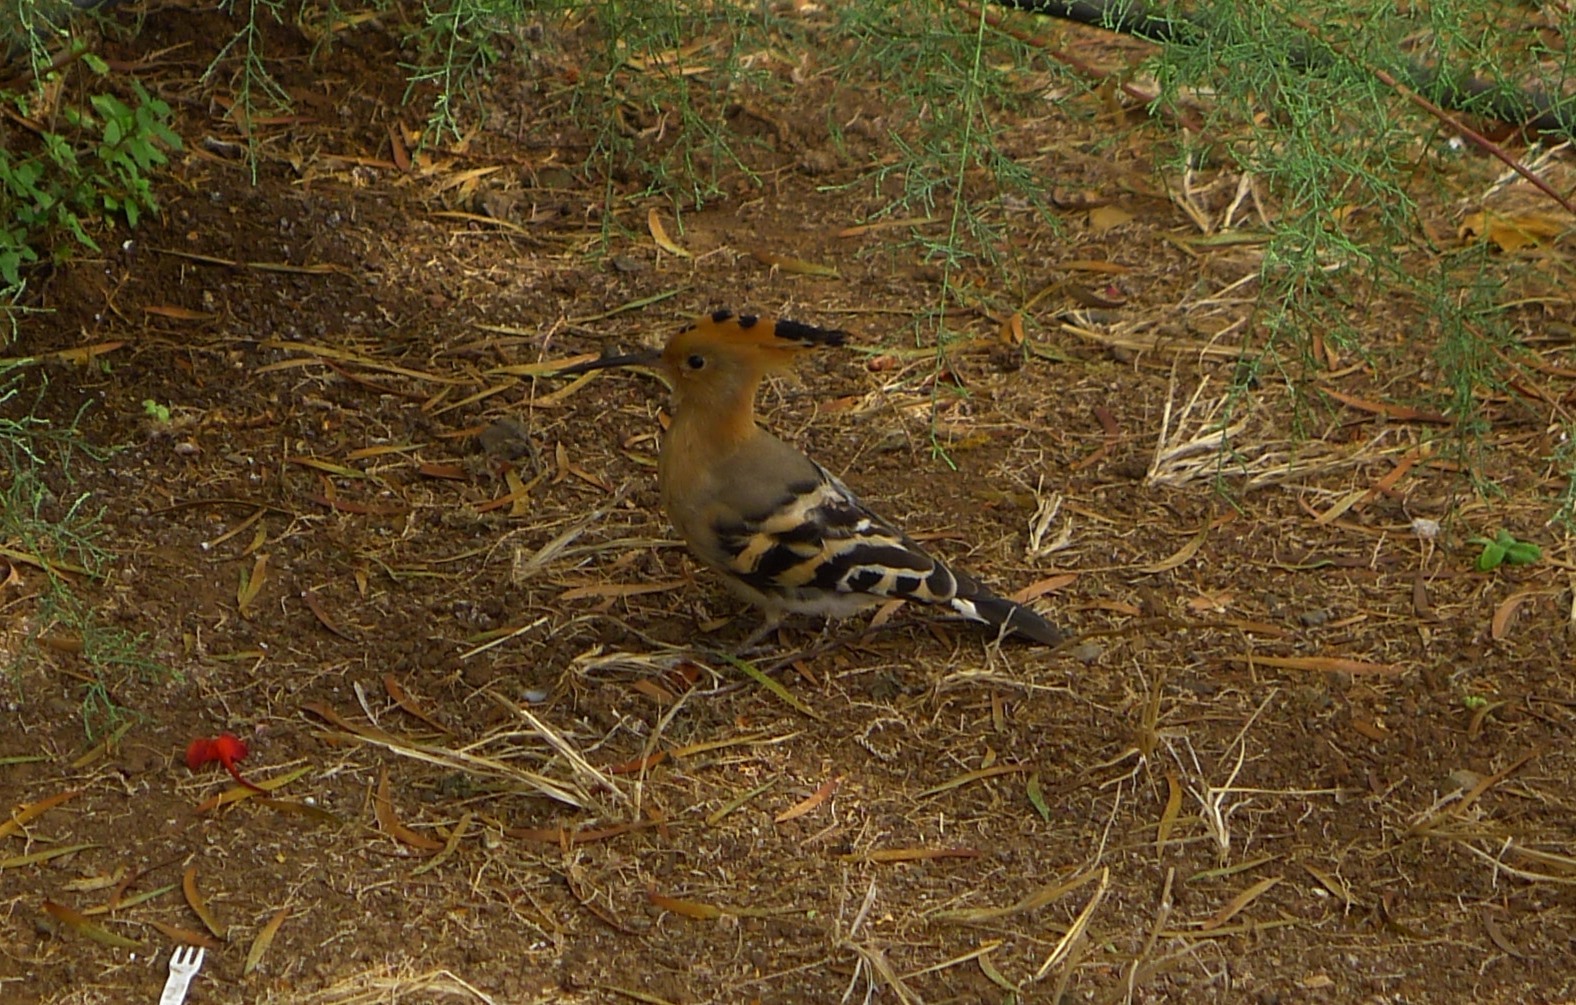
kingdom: Animalia
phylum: Chordata
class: Aves
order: Bucerotiformes
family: Upupidae
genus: Upupa
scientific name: Upupa epops
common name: Eurasian hoopoe
